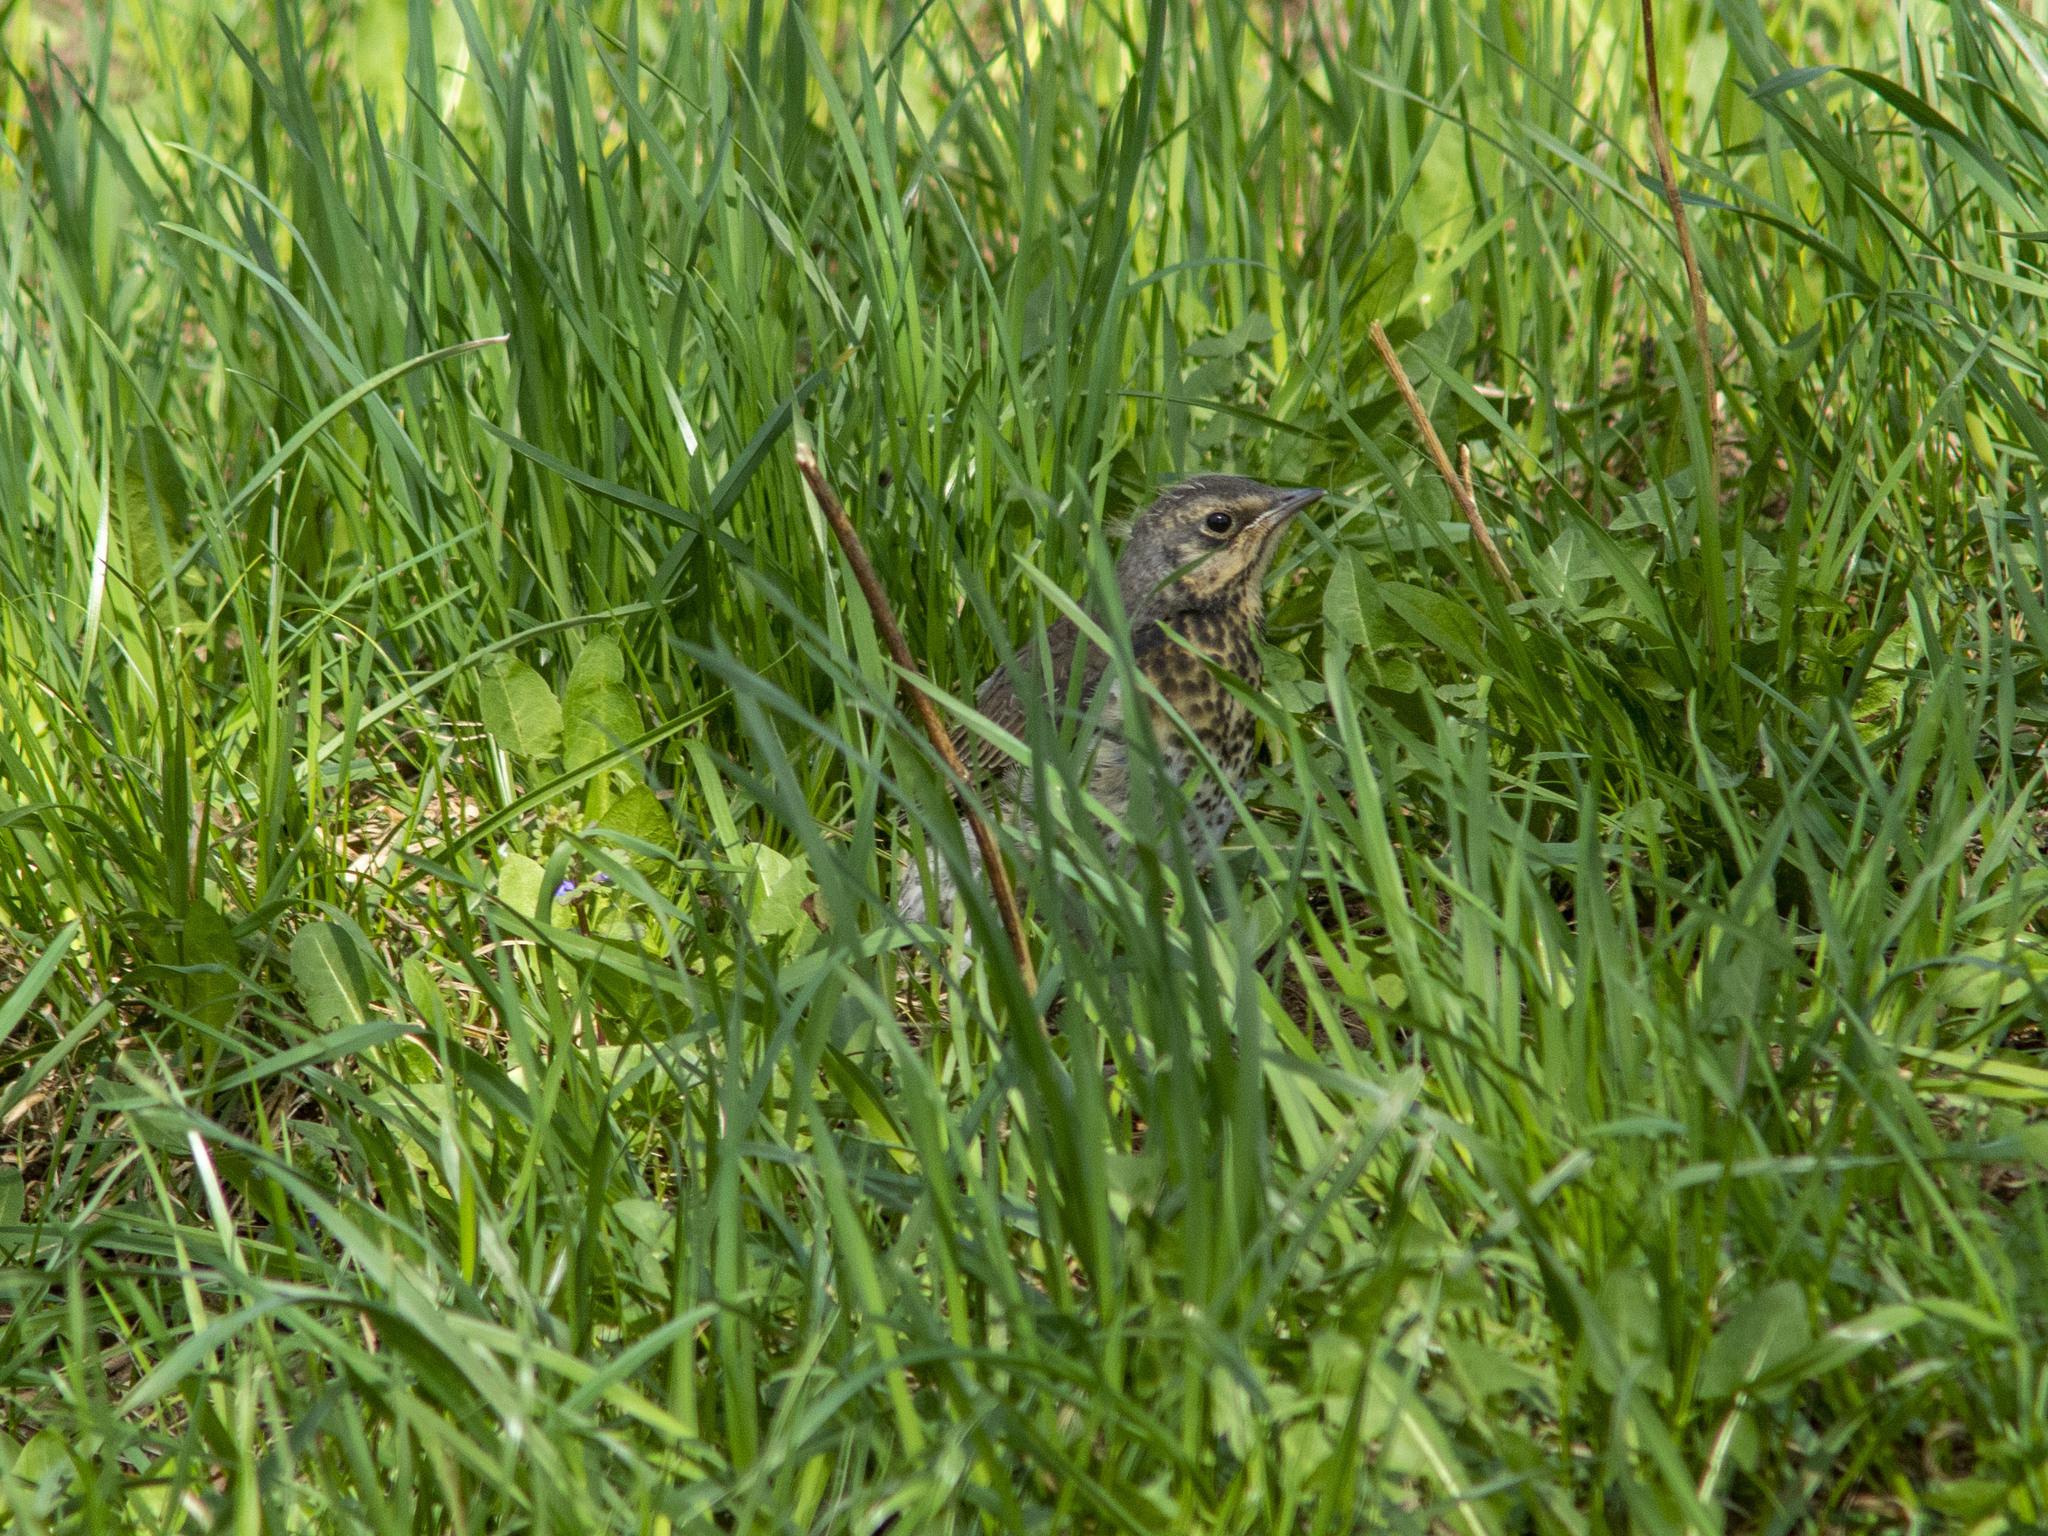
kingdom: Animalia
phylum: Chordata
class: Aves
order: Passeriformes
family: Turdidae
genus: Turdus
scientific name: Turdus pilaris
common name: Fieldfare
